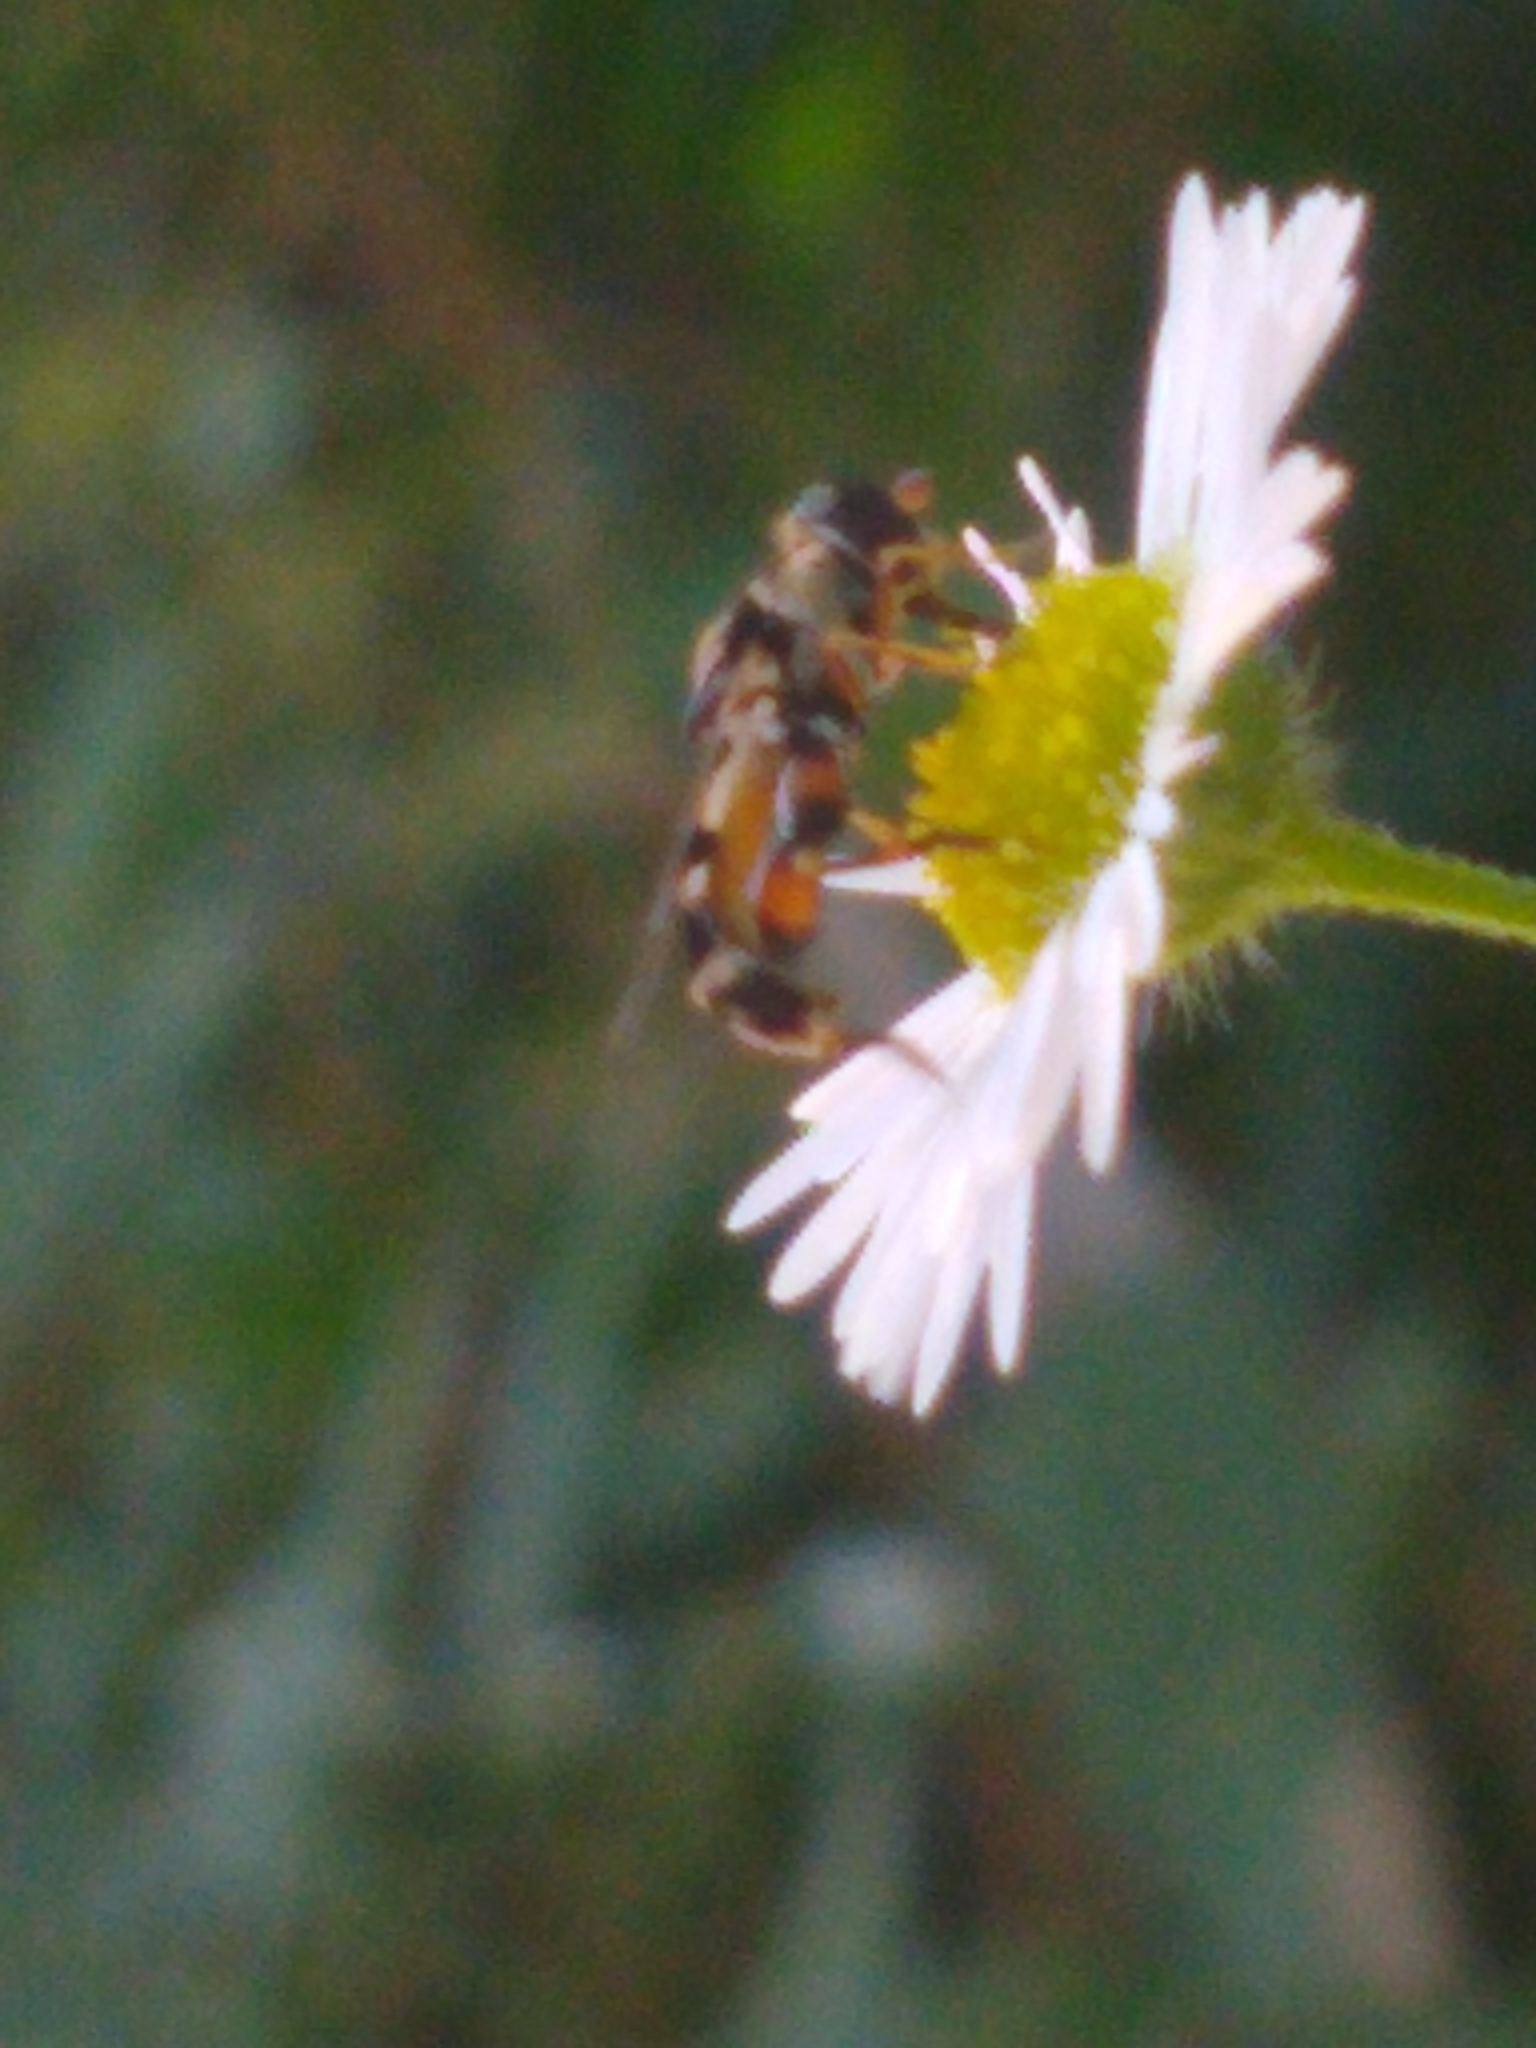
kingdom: Animalia
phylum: Arthropoda
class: Insecta
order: Diptera
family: Syrphidae
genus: Syritta
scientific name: Syritta pipiens
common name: Hover fly
